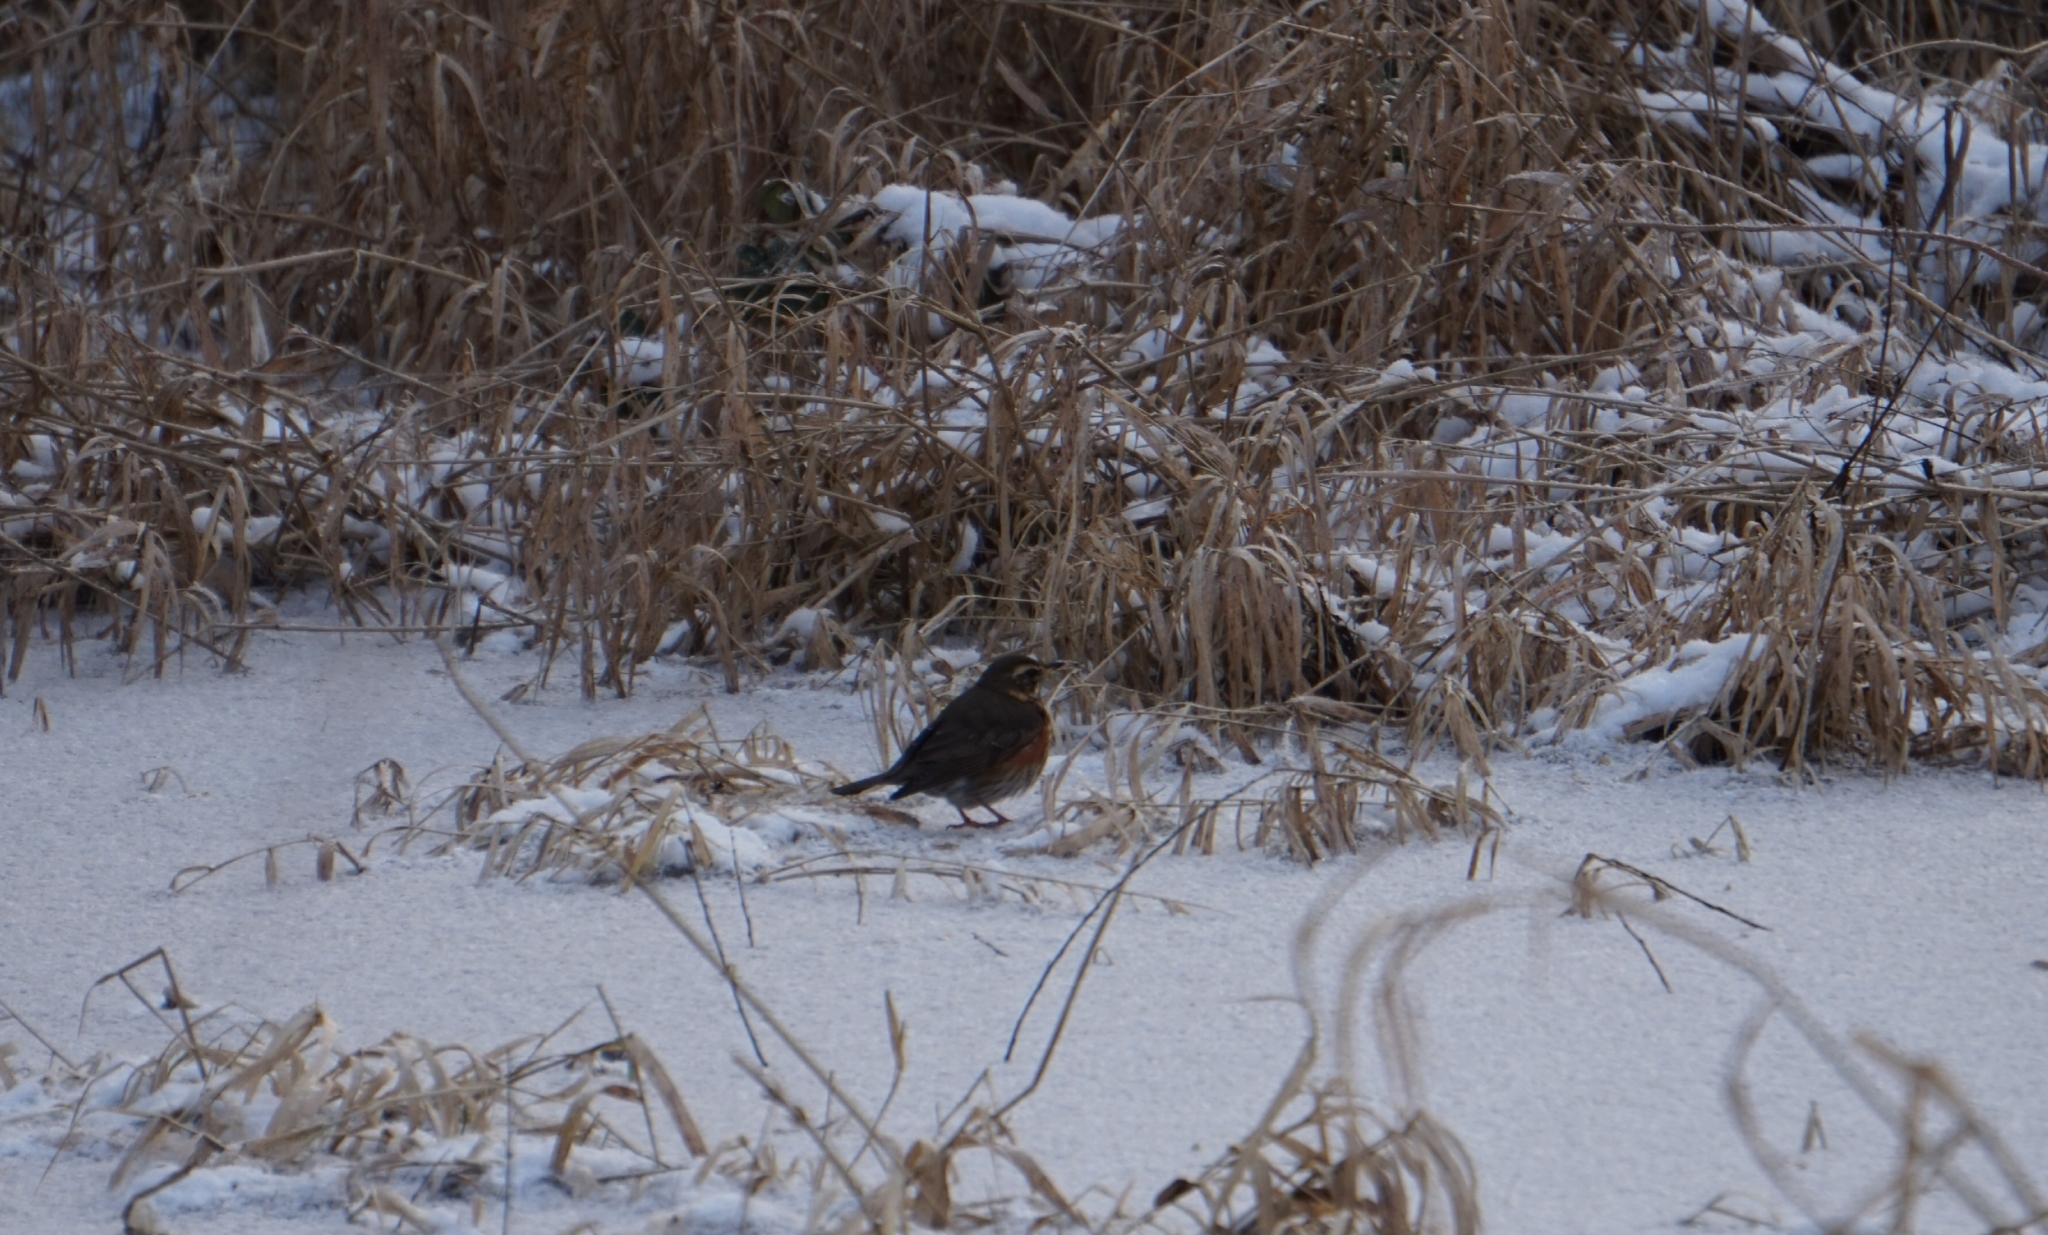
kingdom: Animalia
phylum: Chordata
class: Aves
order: Passeriformes
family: Turdidae
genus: Turdus
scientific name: Turdus iliacus
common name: Redwing
